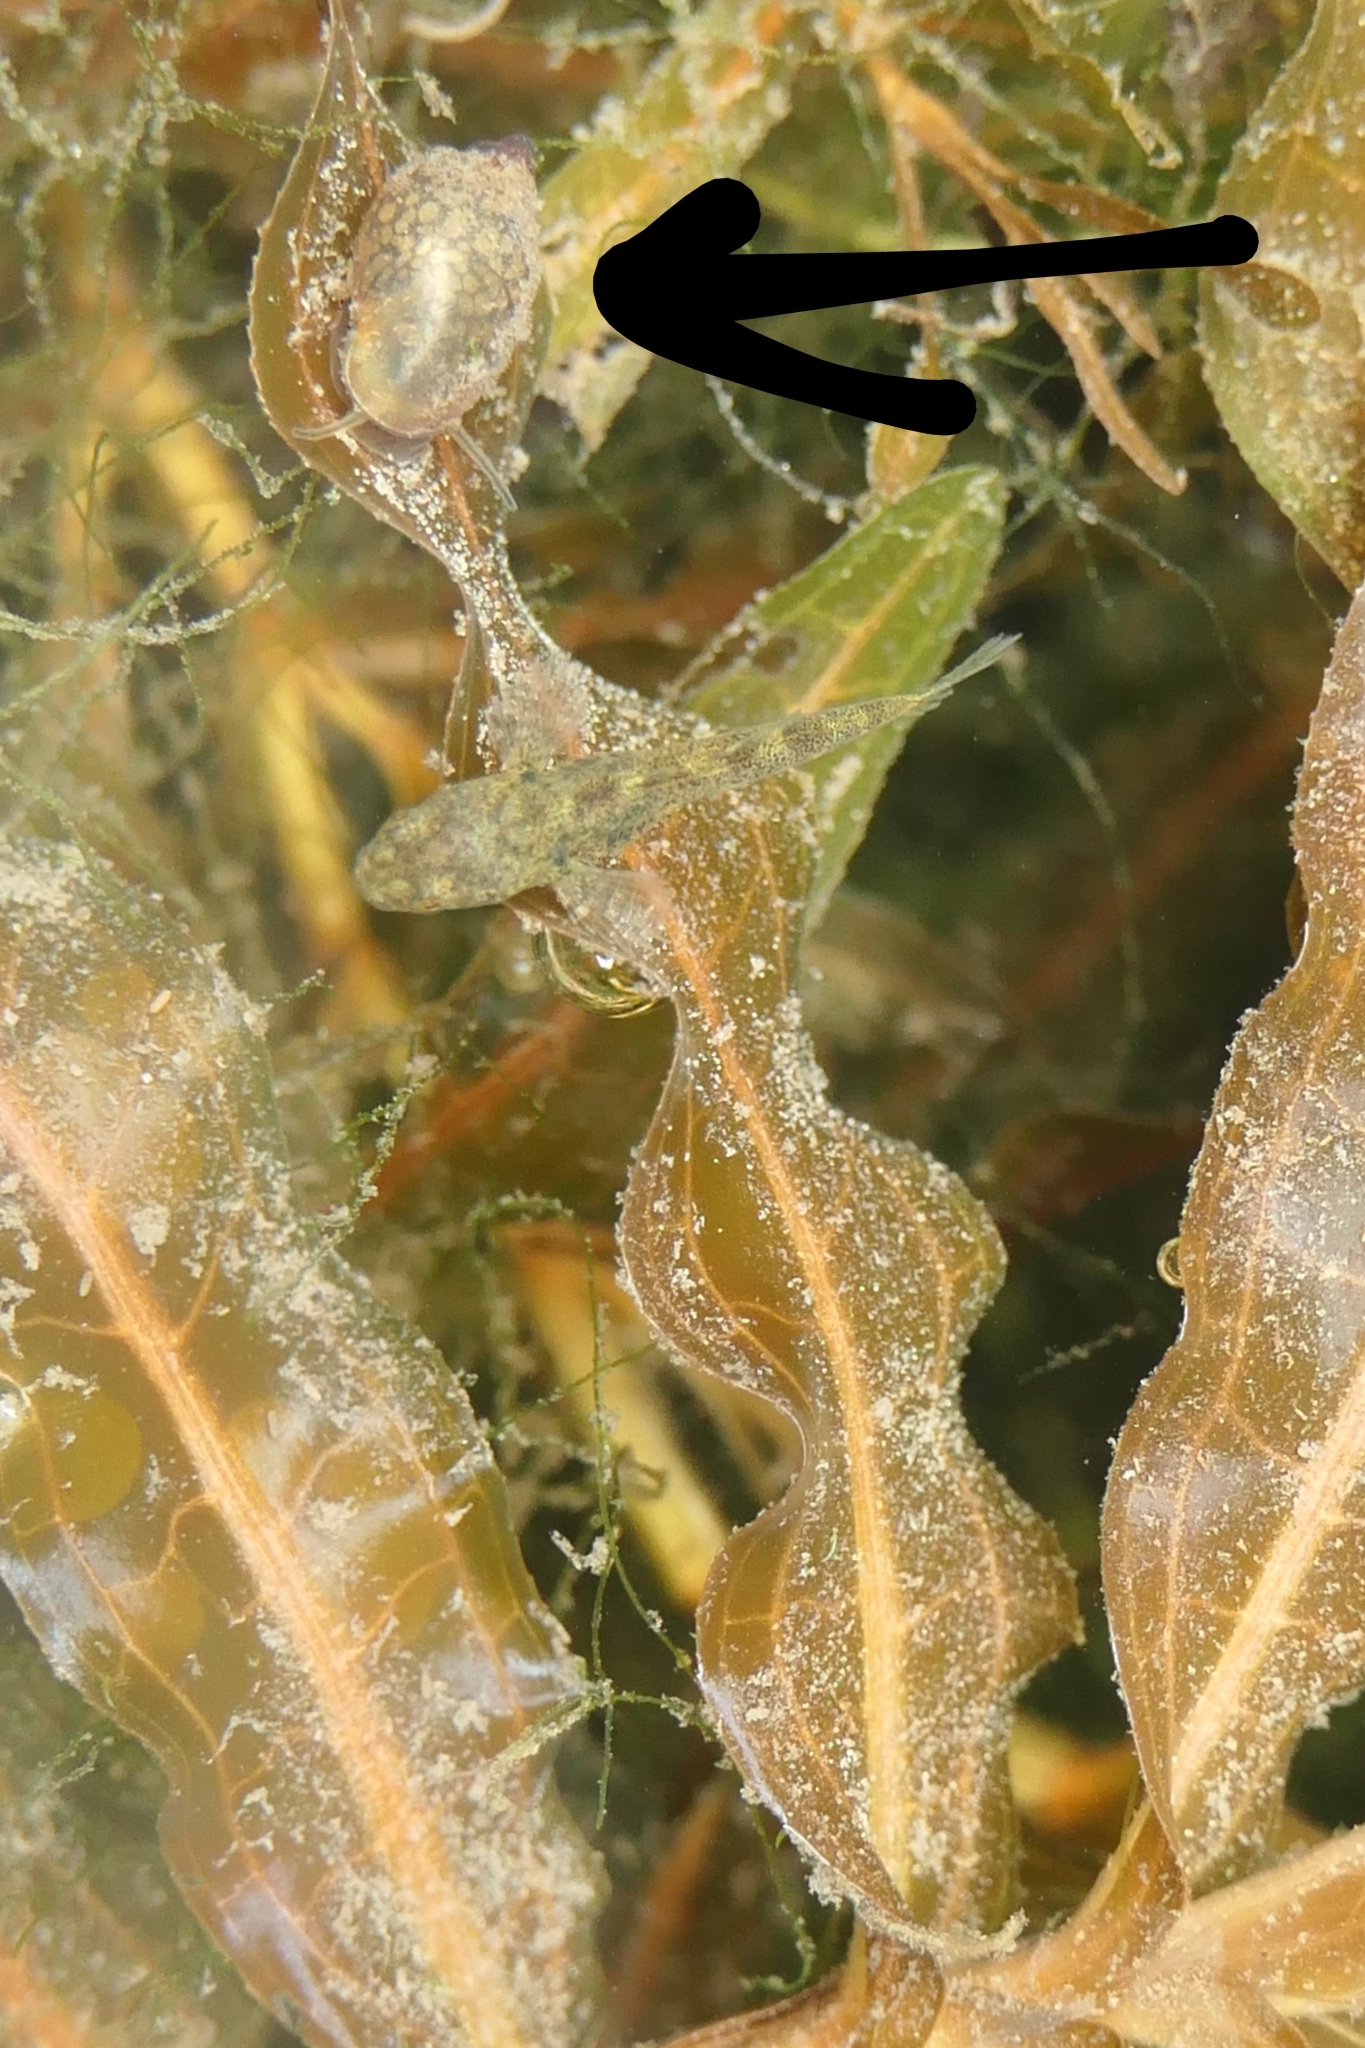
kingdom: Animalia
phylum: Mollusca
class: Gastropoda
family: Physidae
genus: Physella
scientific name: Physella acuta
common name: European physa
